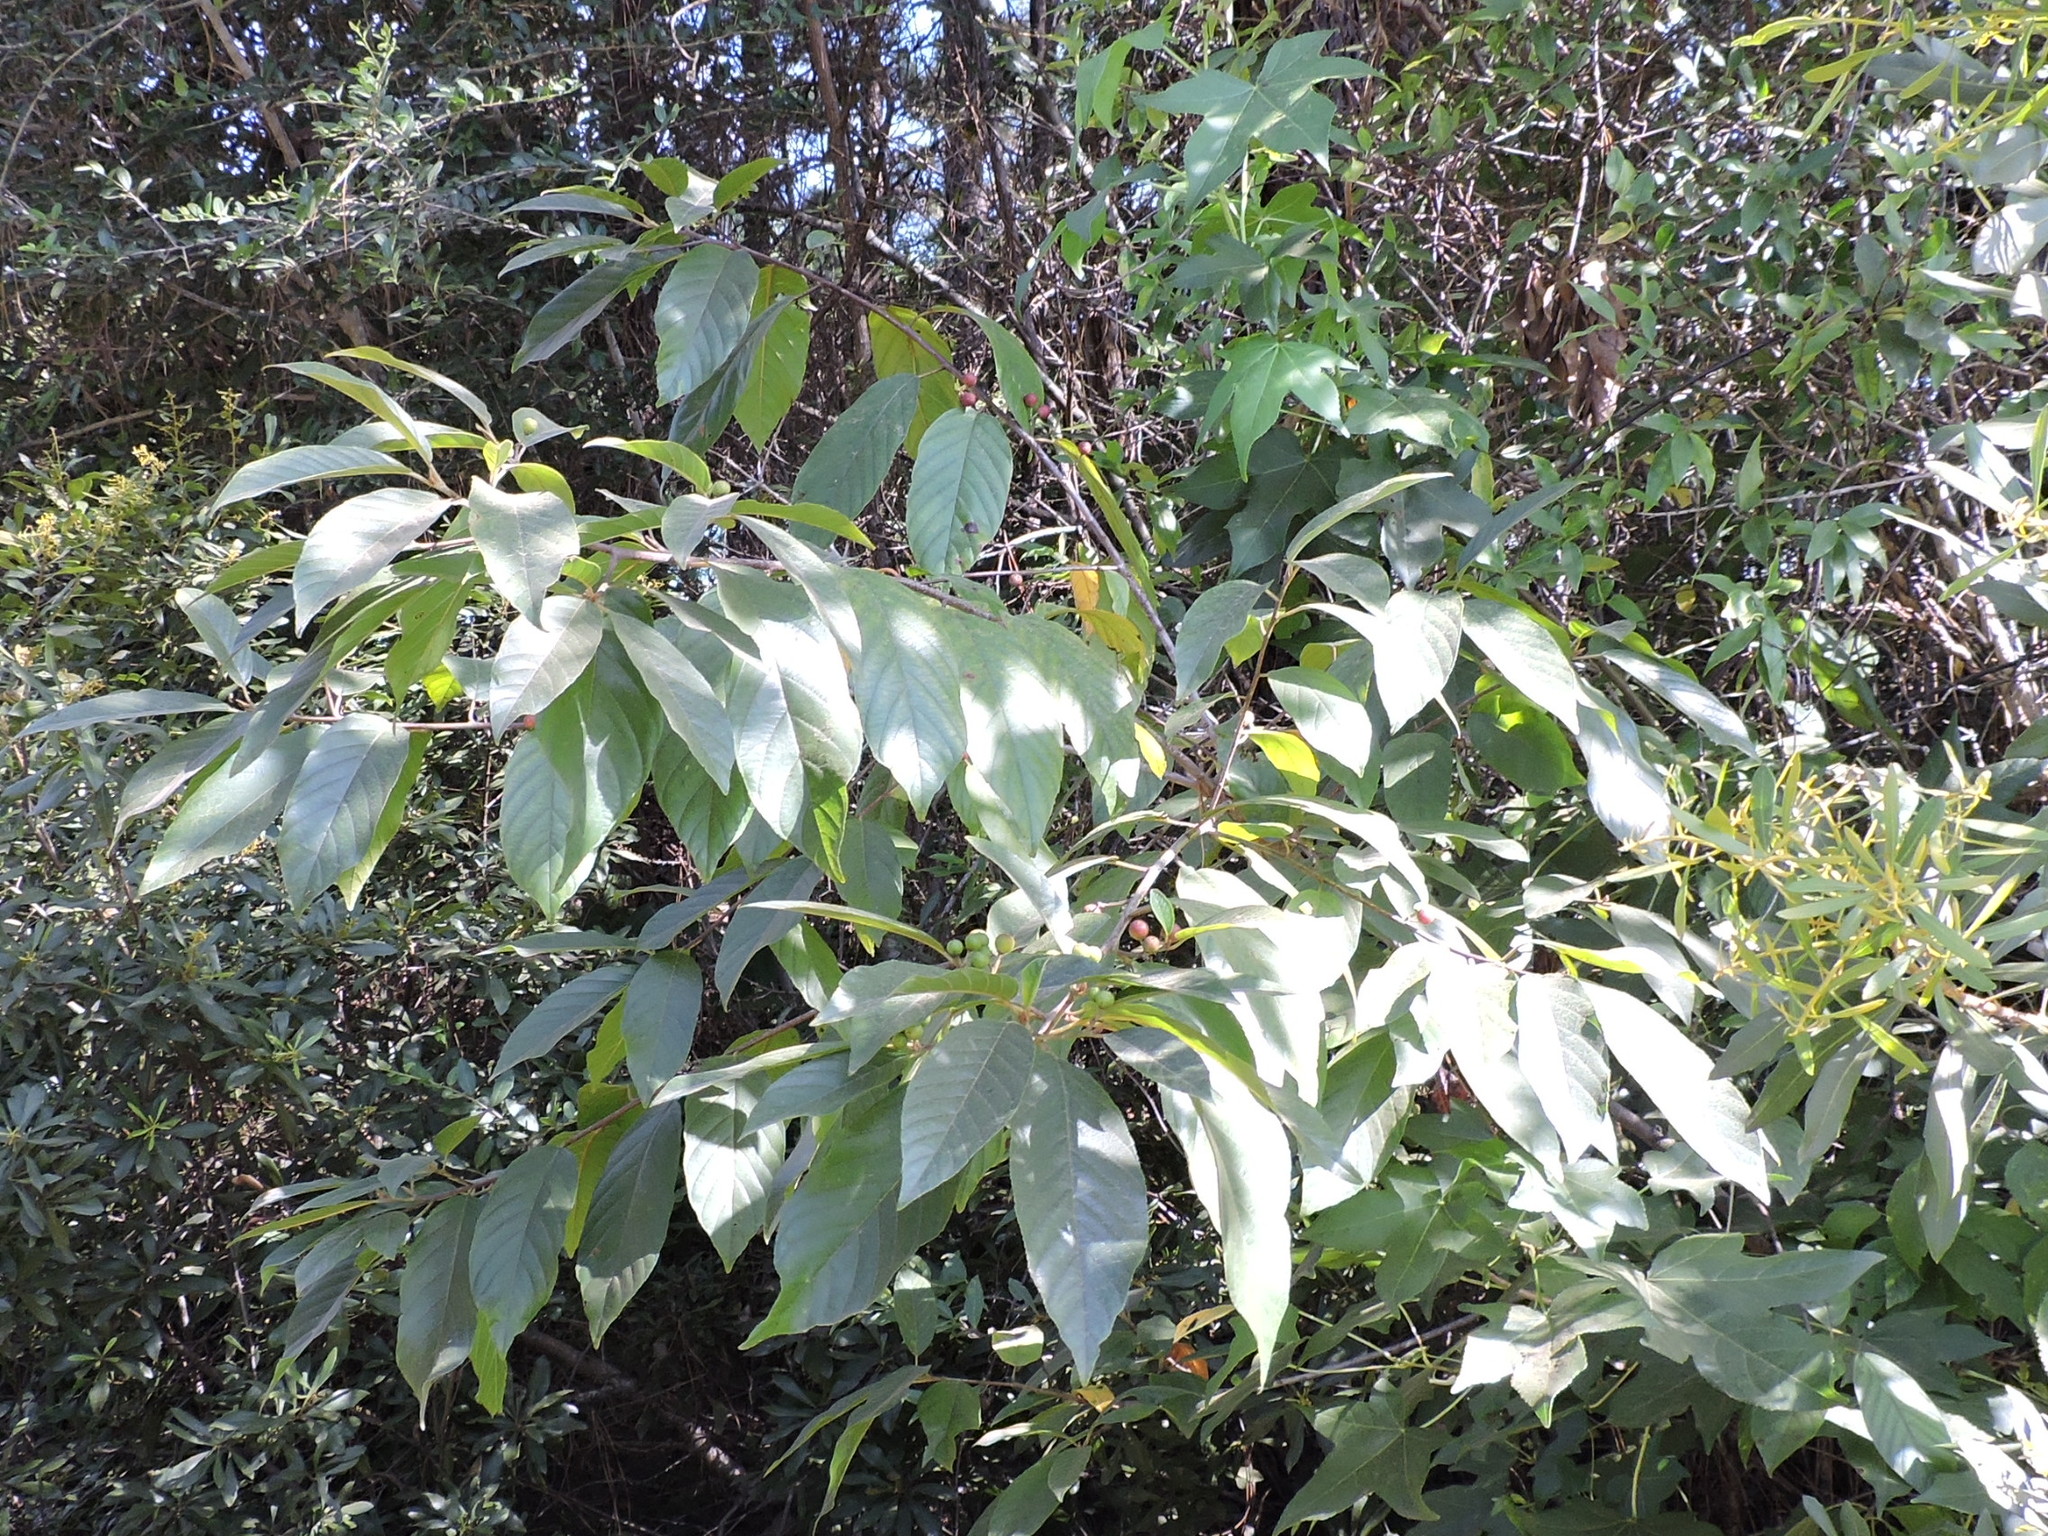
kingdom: Plantae
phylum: Tracheophyta
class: Magnoliopsida
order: Rosales
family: Rhamnaceae
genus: Frangula
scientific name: Frangula caroliniana
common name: Carolina buckthorn
